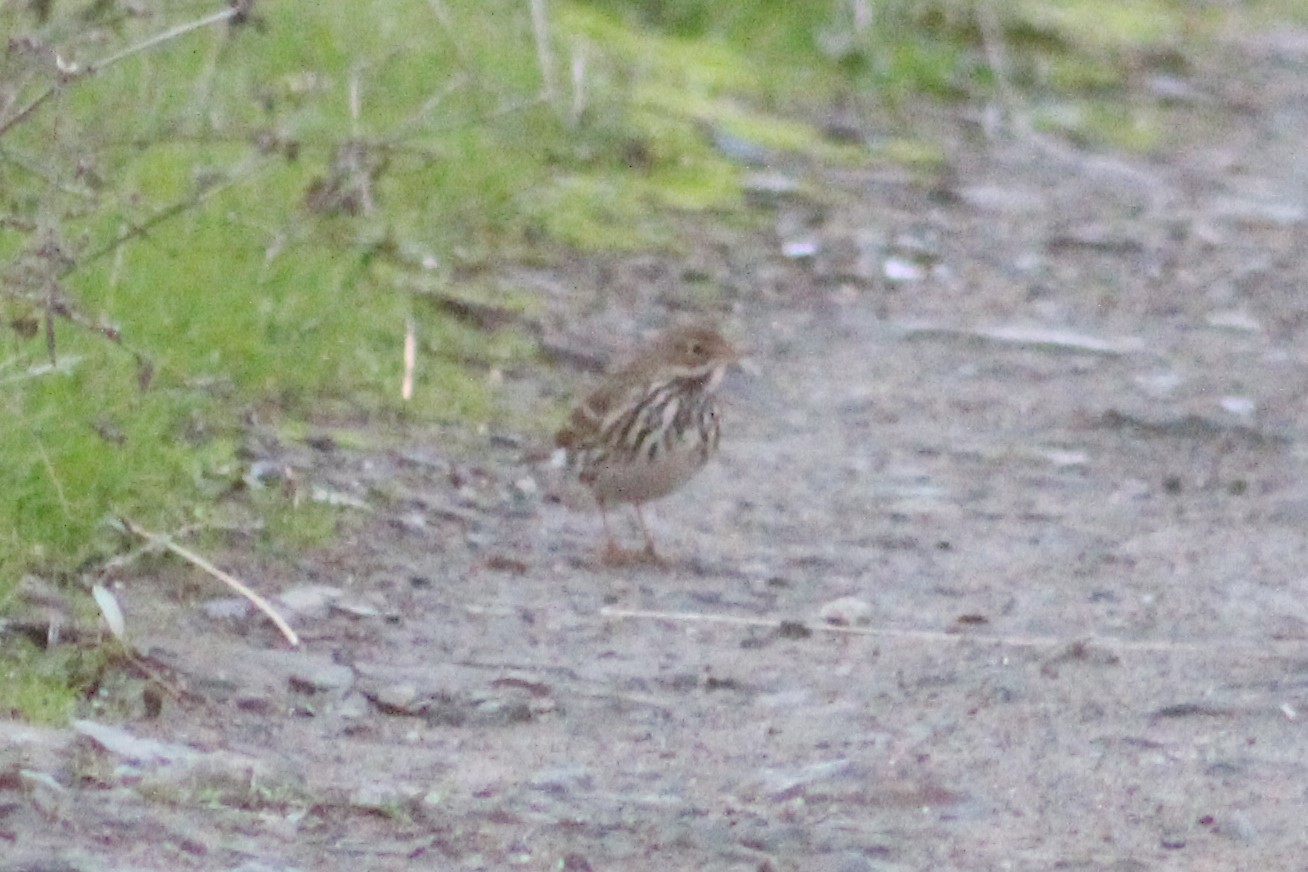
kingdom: Animalia
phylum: Chordata
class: Aves
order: Passeriformes
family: Motacillidae
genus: Anthus
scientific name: Anthus pratensis
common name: Meadow pipit
